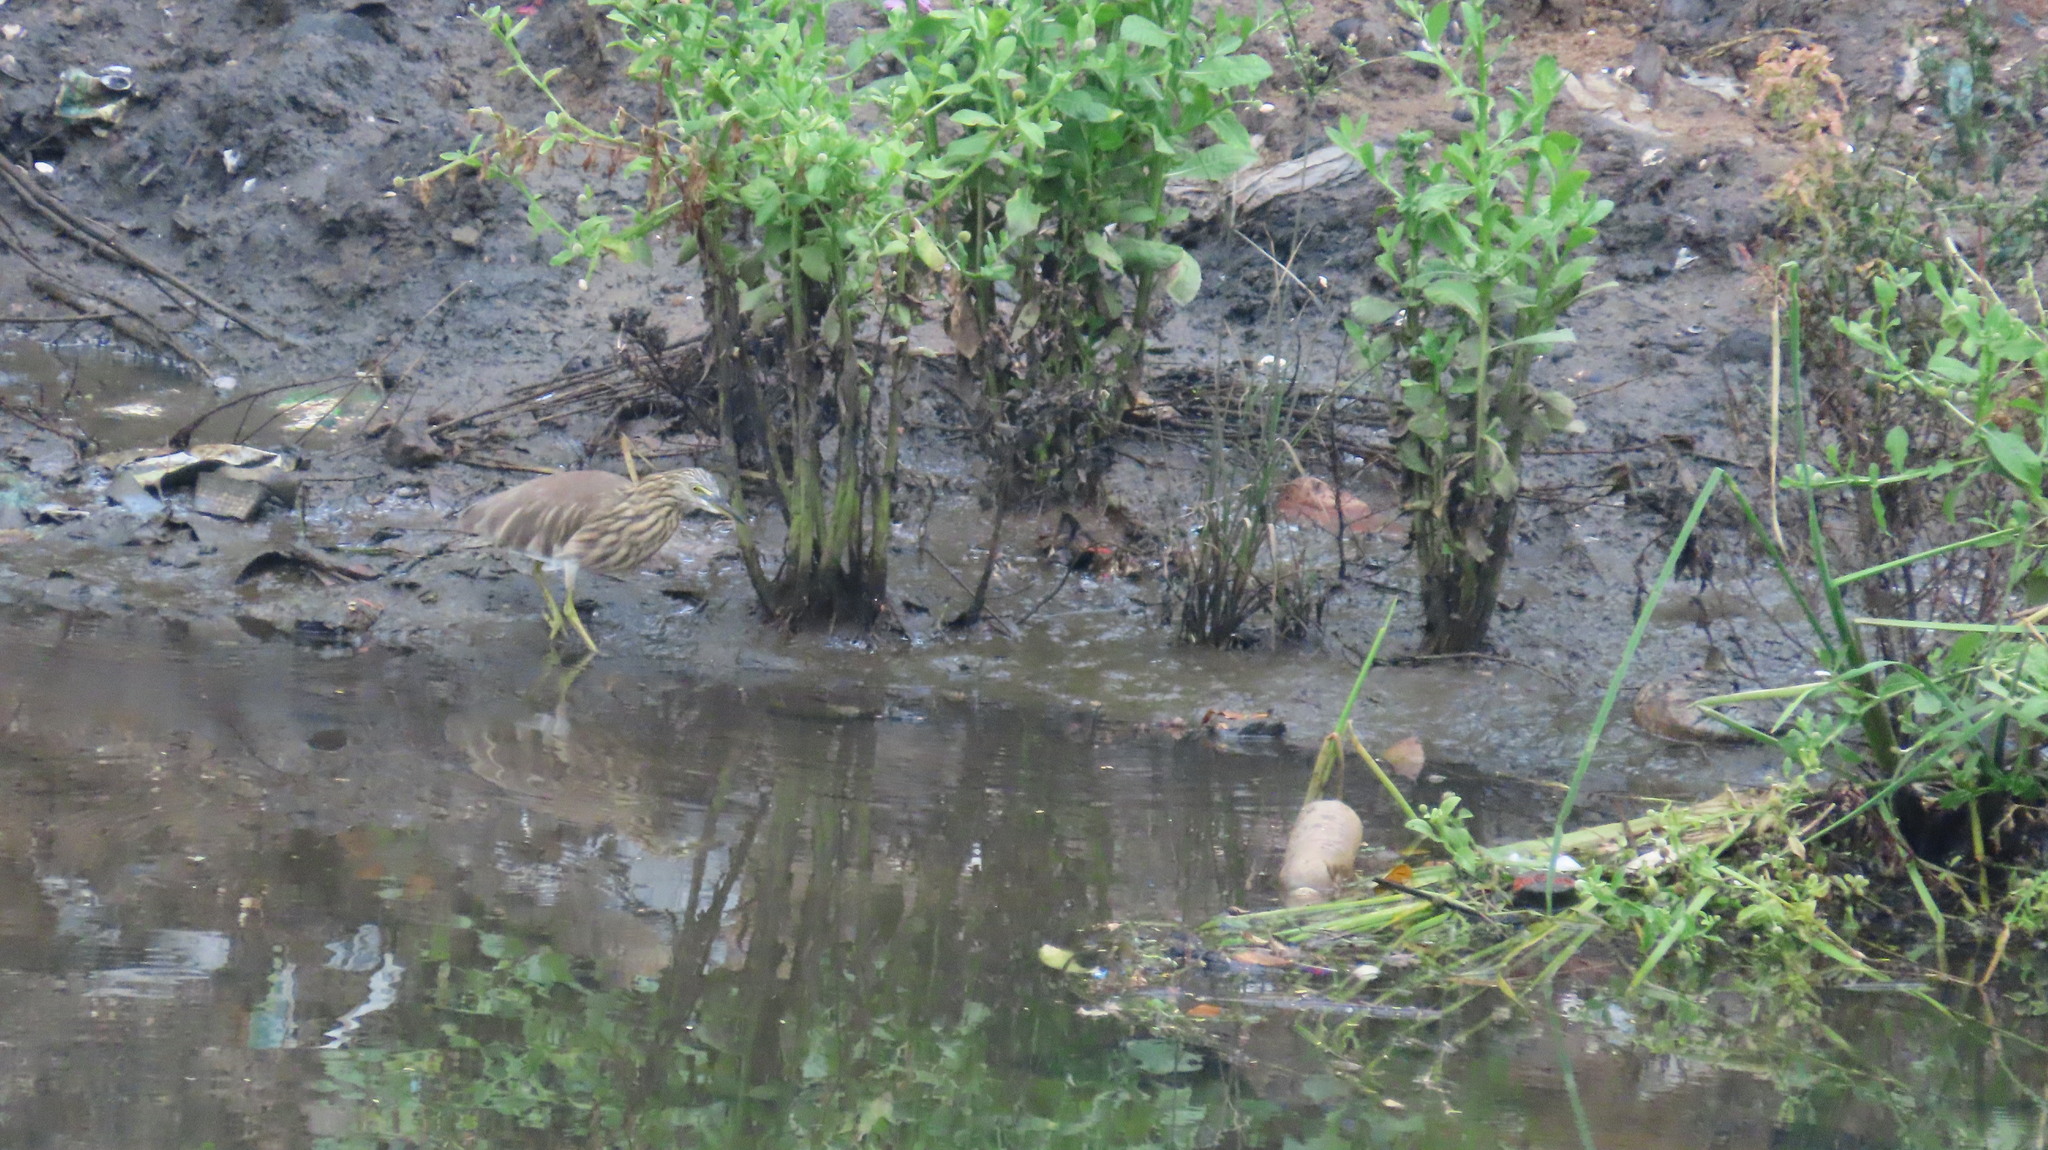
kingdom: Animalia
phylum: Chordata
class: Aves
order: Pelecaniformes
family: Ardeidae
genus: Ardeola
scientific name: Ardeola grayii
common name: Indian pond heron
